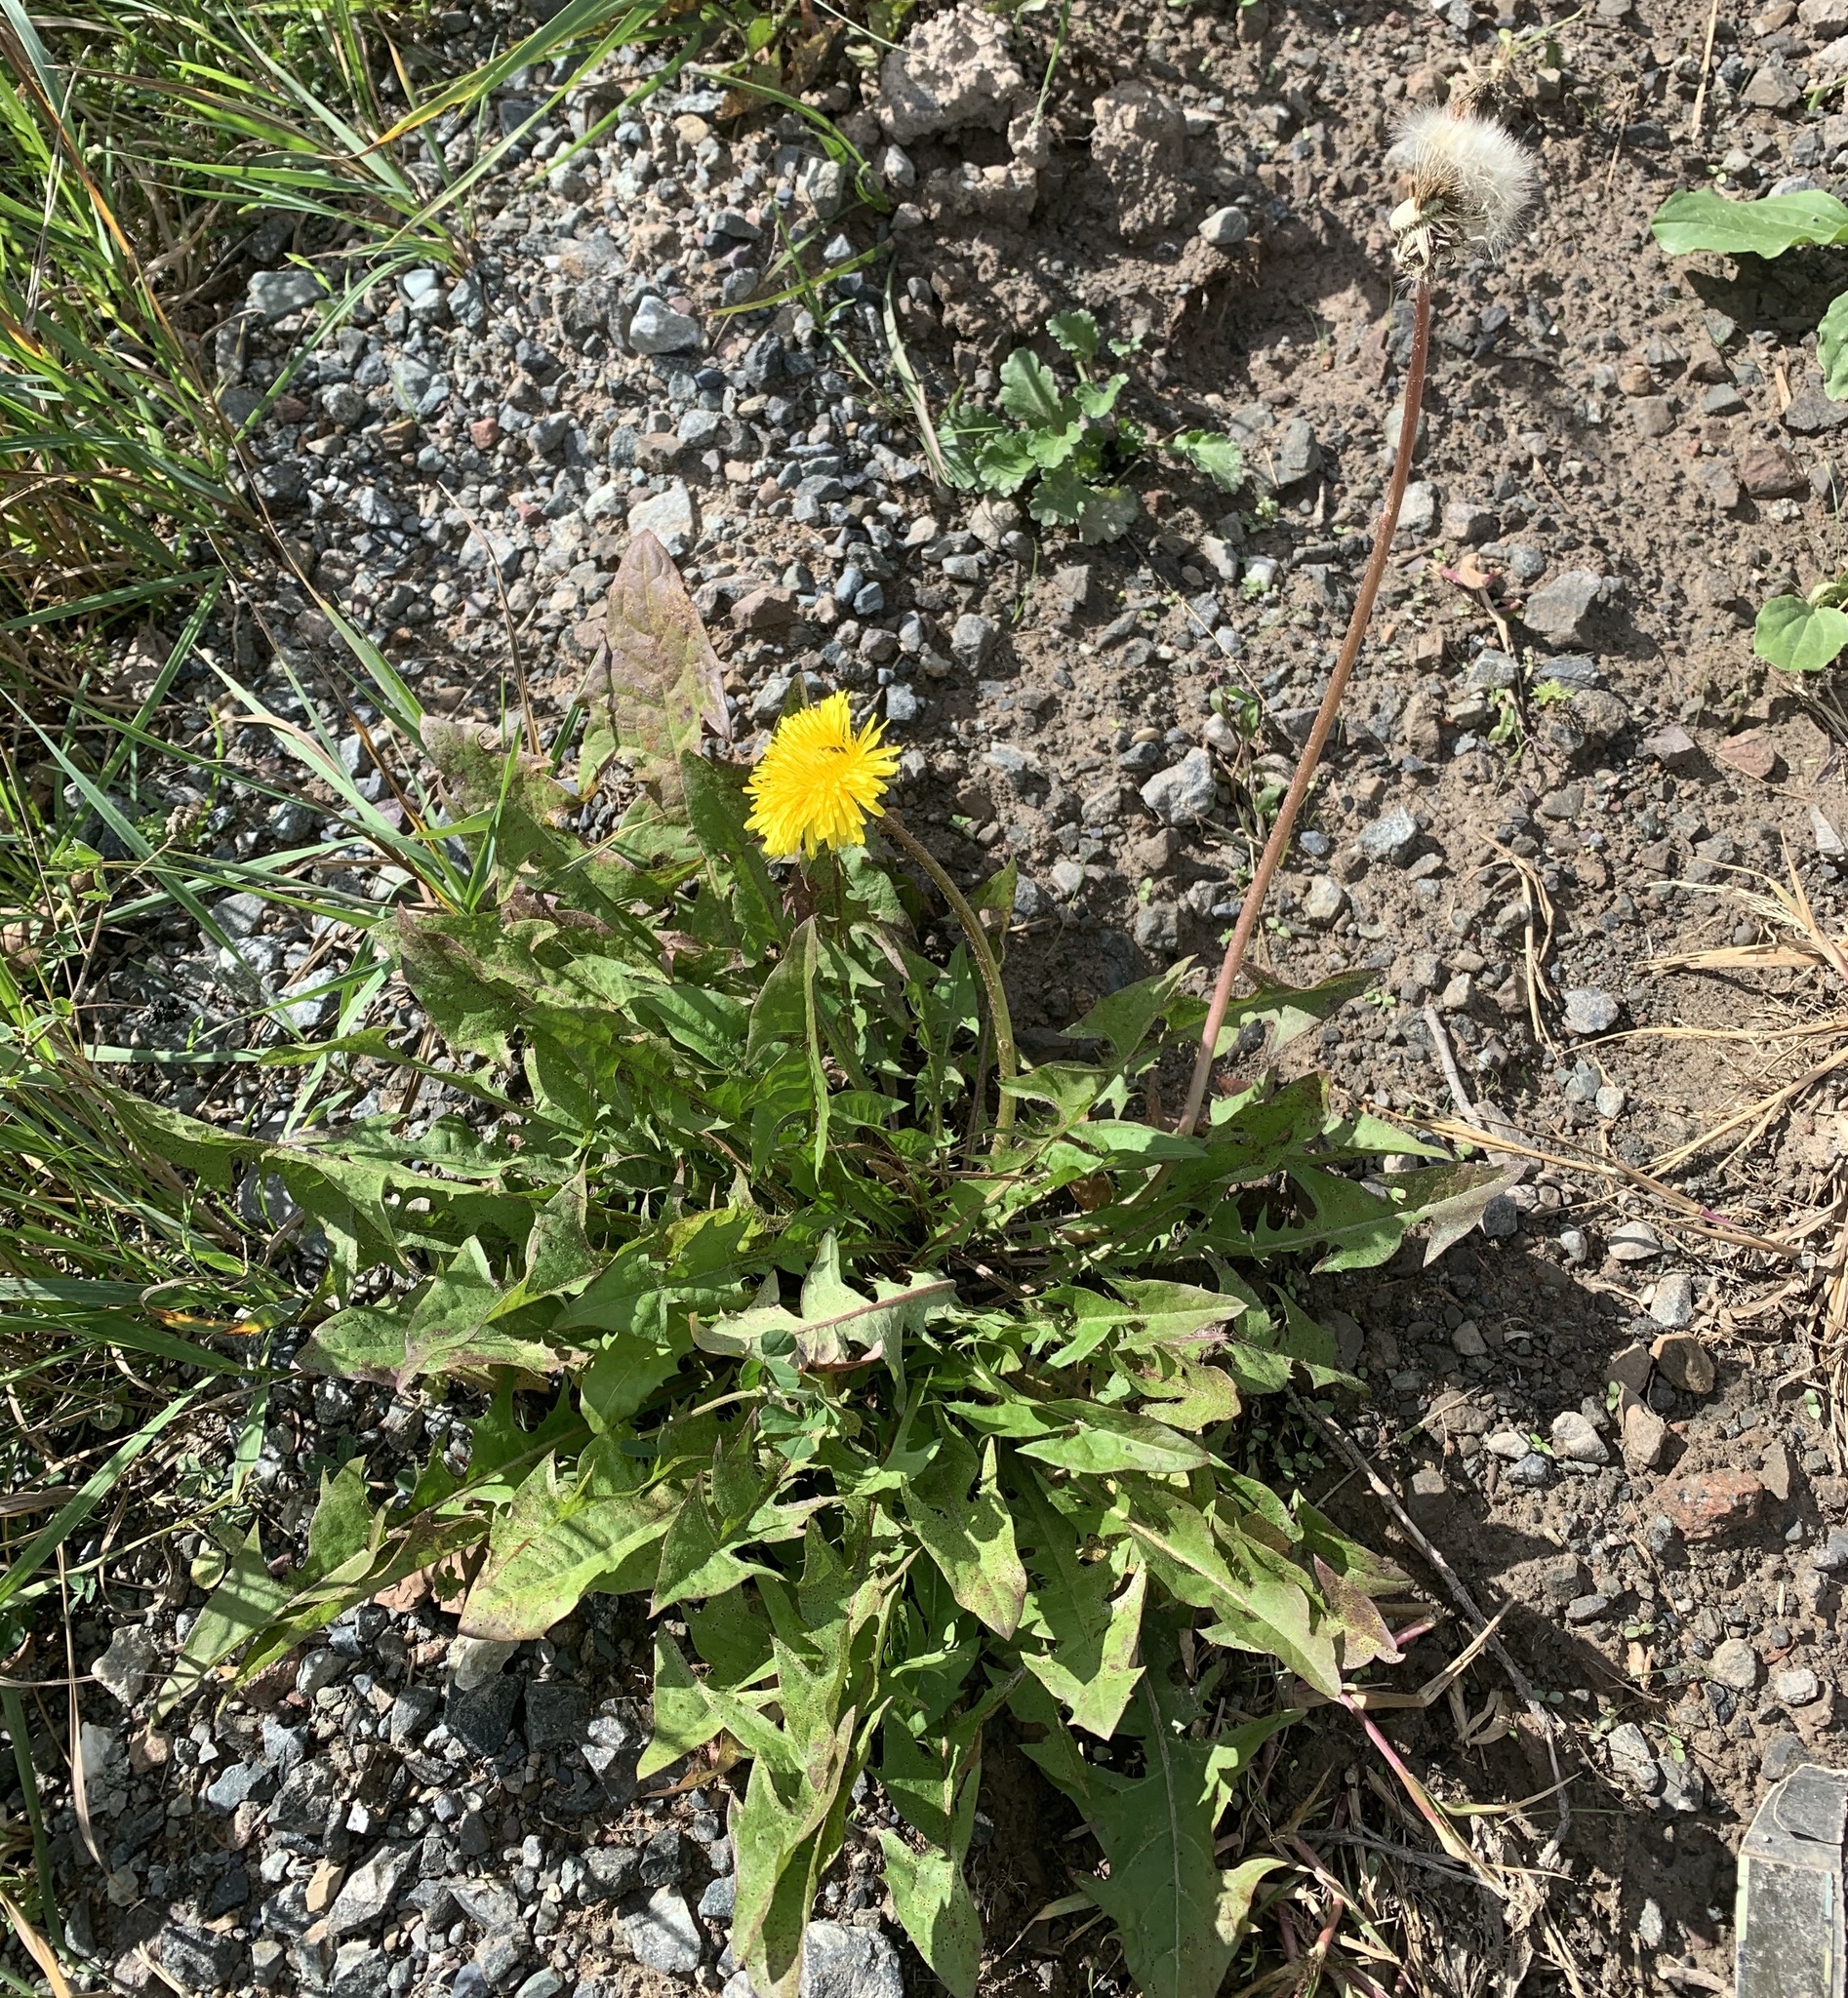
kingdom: Plantae
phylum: Tracheophyta
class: Magnoliopsida
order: Asterales
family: Asteraceae
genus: Taraxacum
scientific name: Taraxacum officinale
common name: Common dandelion
